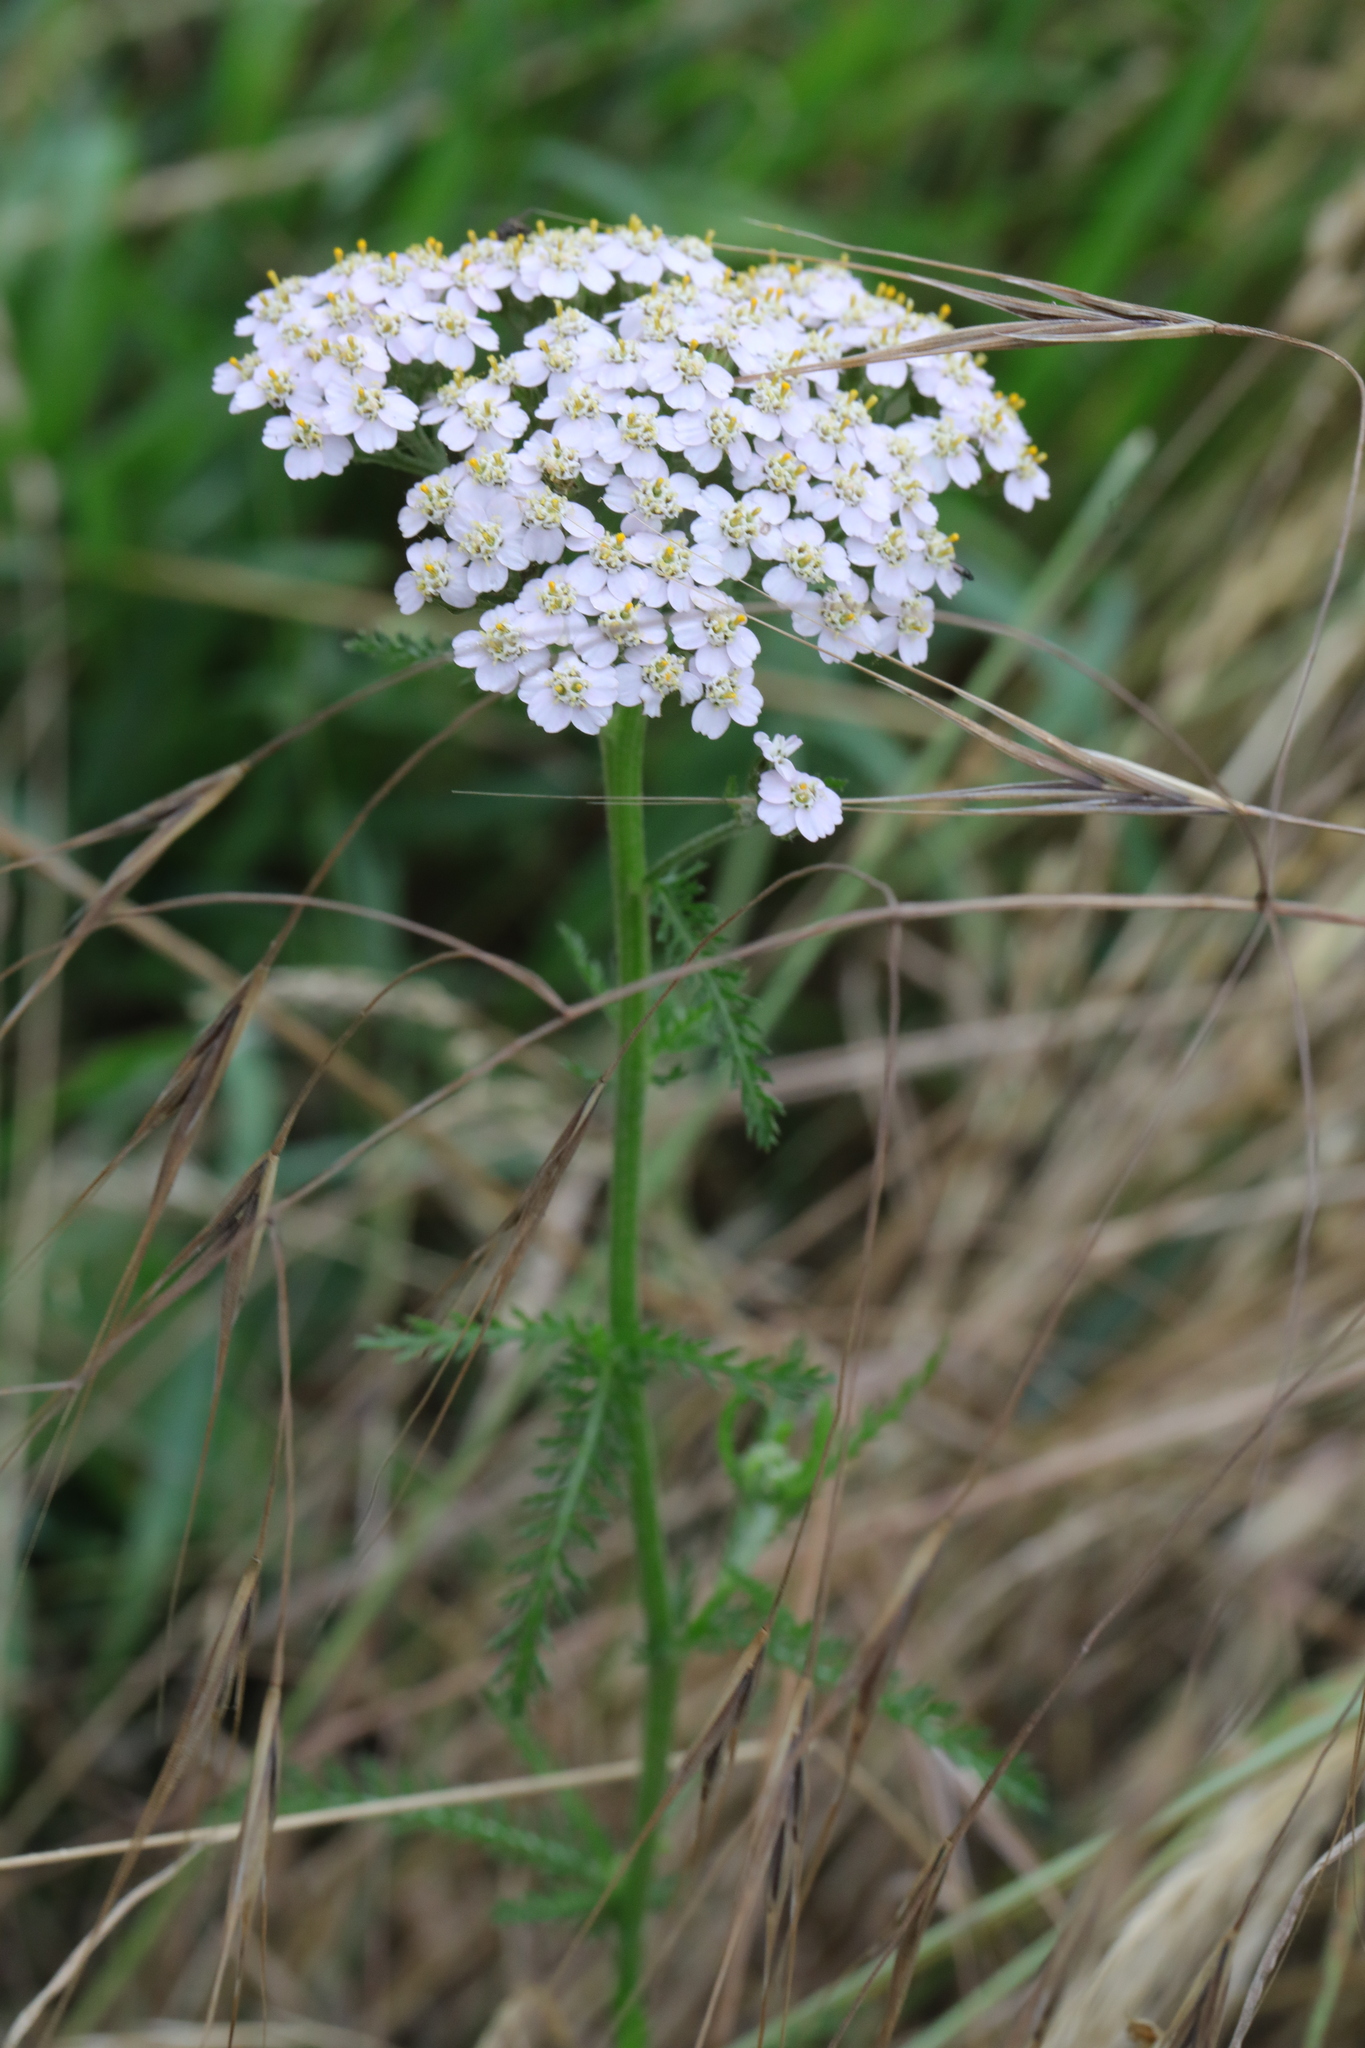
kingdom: Plantae
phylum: Tracheophyta
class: Magnoliopsida
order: Asterales
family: Asteraceae
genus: Achillea
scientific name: Achillea millefolium
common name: Yarrow
